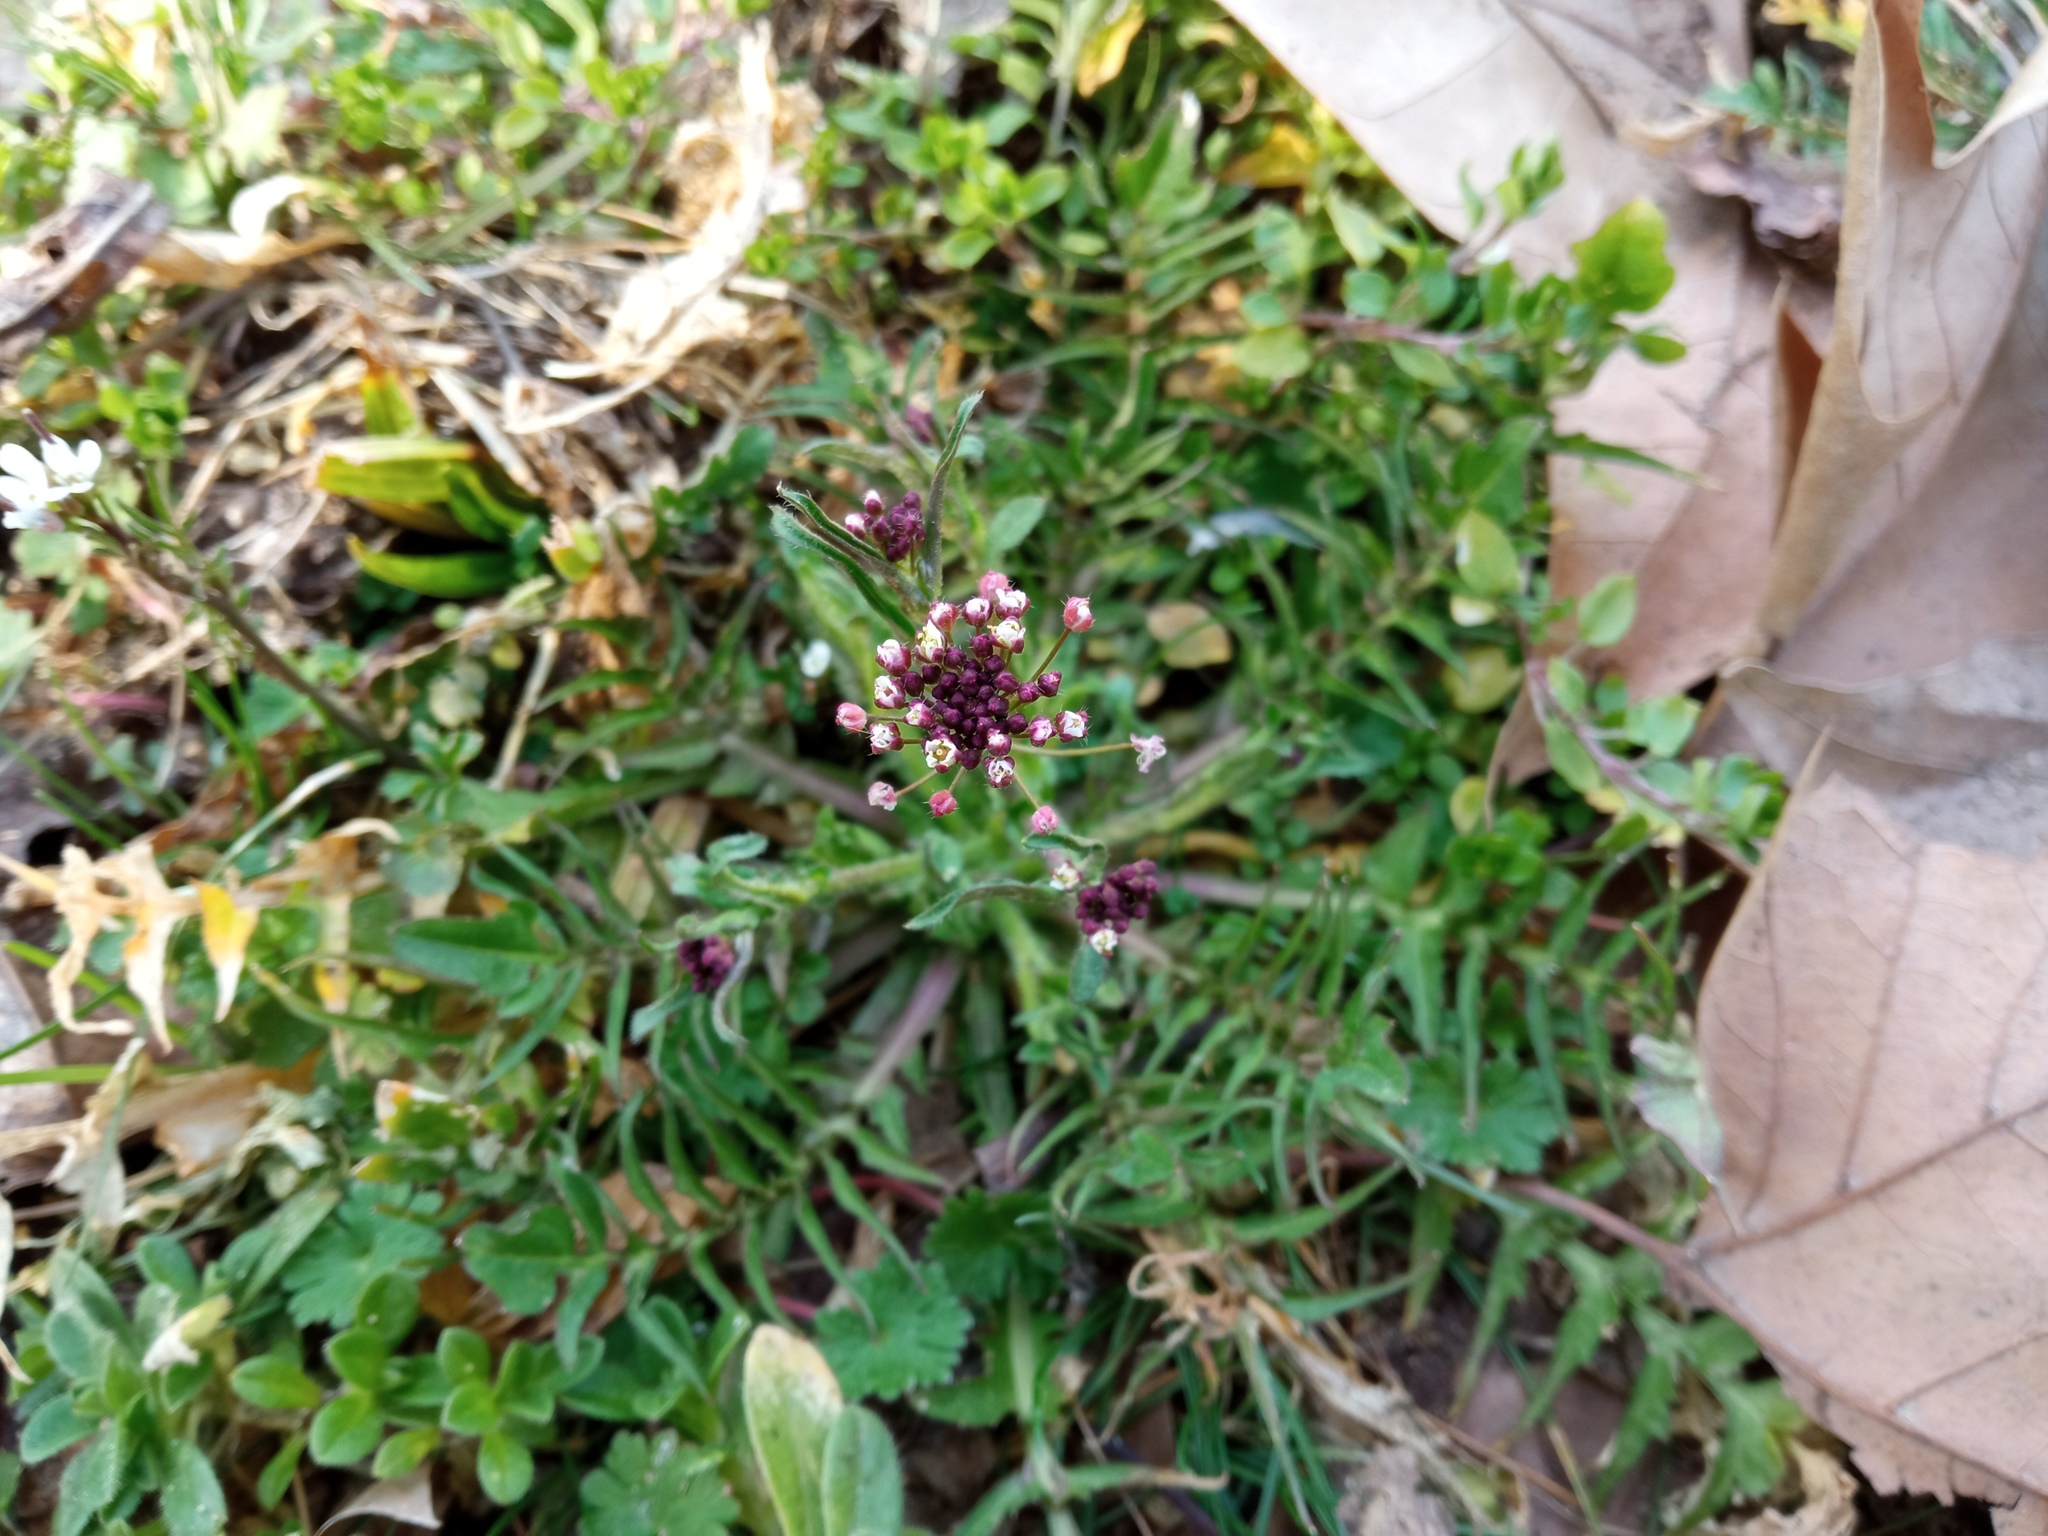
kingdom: Plantae
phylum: Tracheophyta
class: Magnoliopsida
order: Brassicales
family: Brassicaceae
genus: Capsella
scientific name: Capsella rubella
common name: Pink shepherd's-purse
